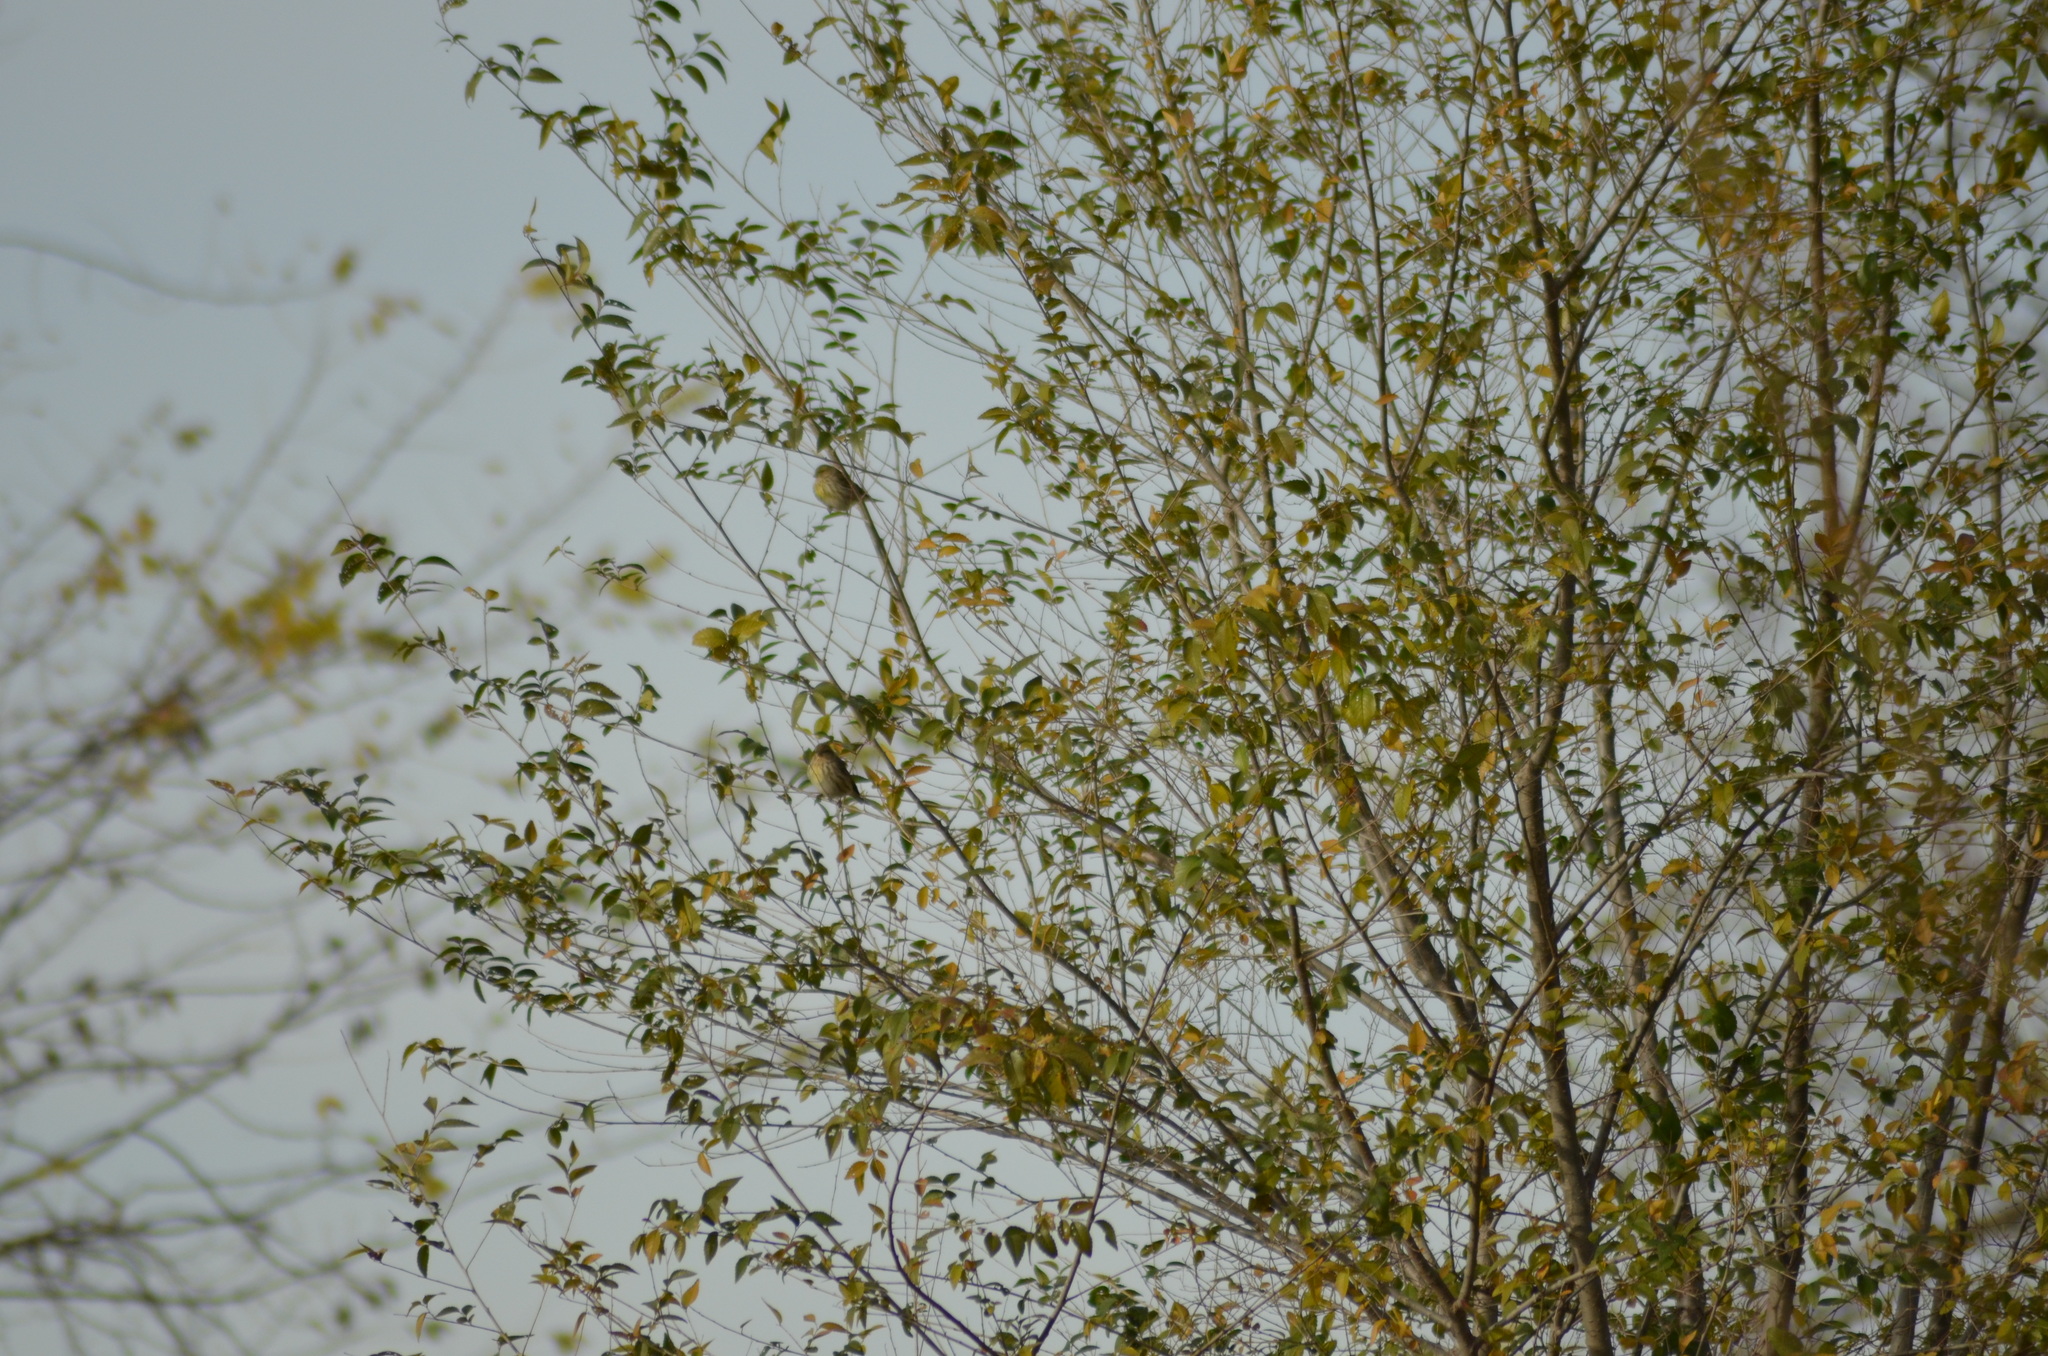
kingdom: Animalia
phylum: Chordata
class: Aves
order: Passeriformes
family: Fringillidae
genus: Serinus
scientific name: Serinus serinus
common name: European serin
